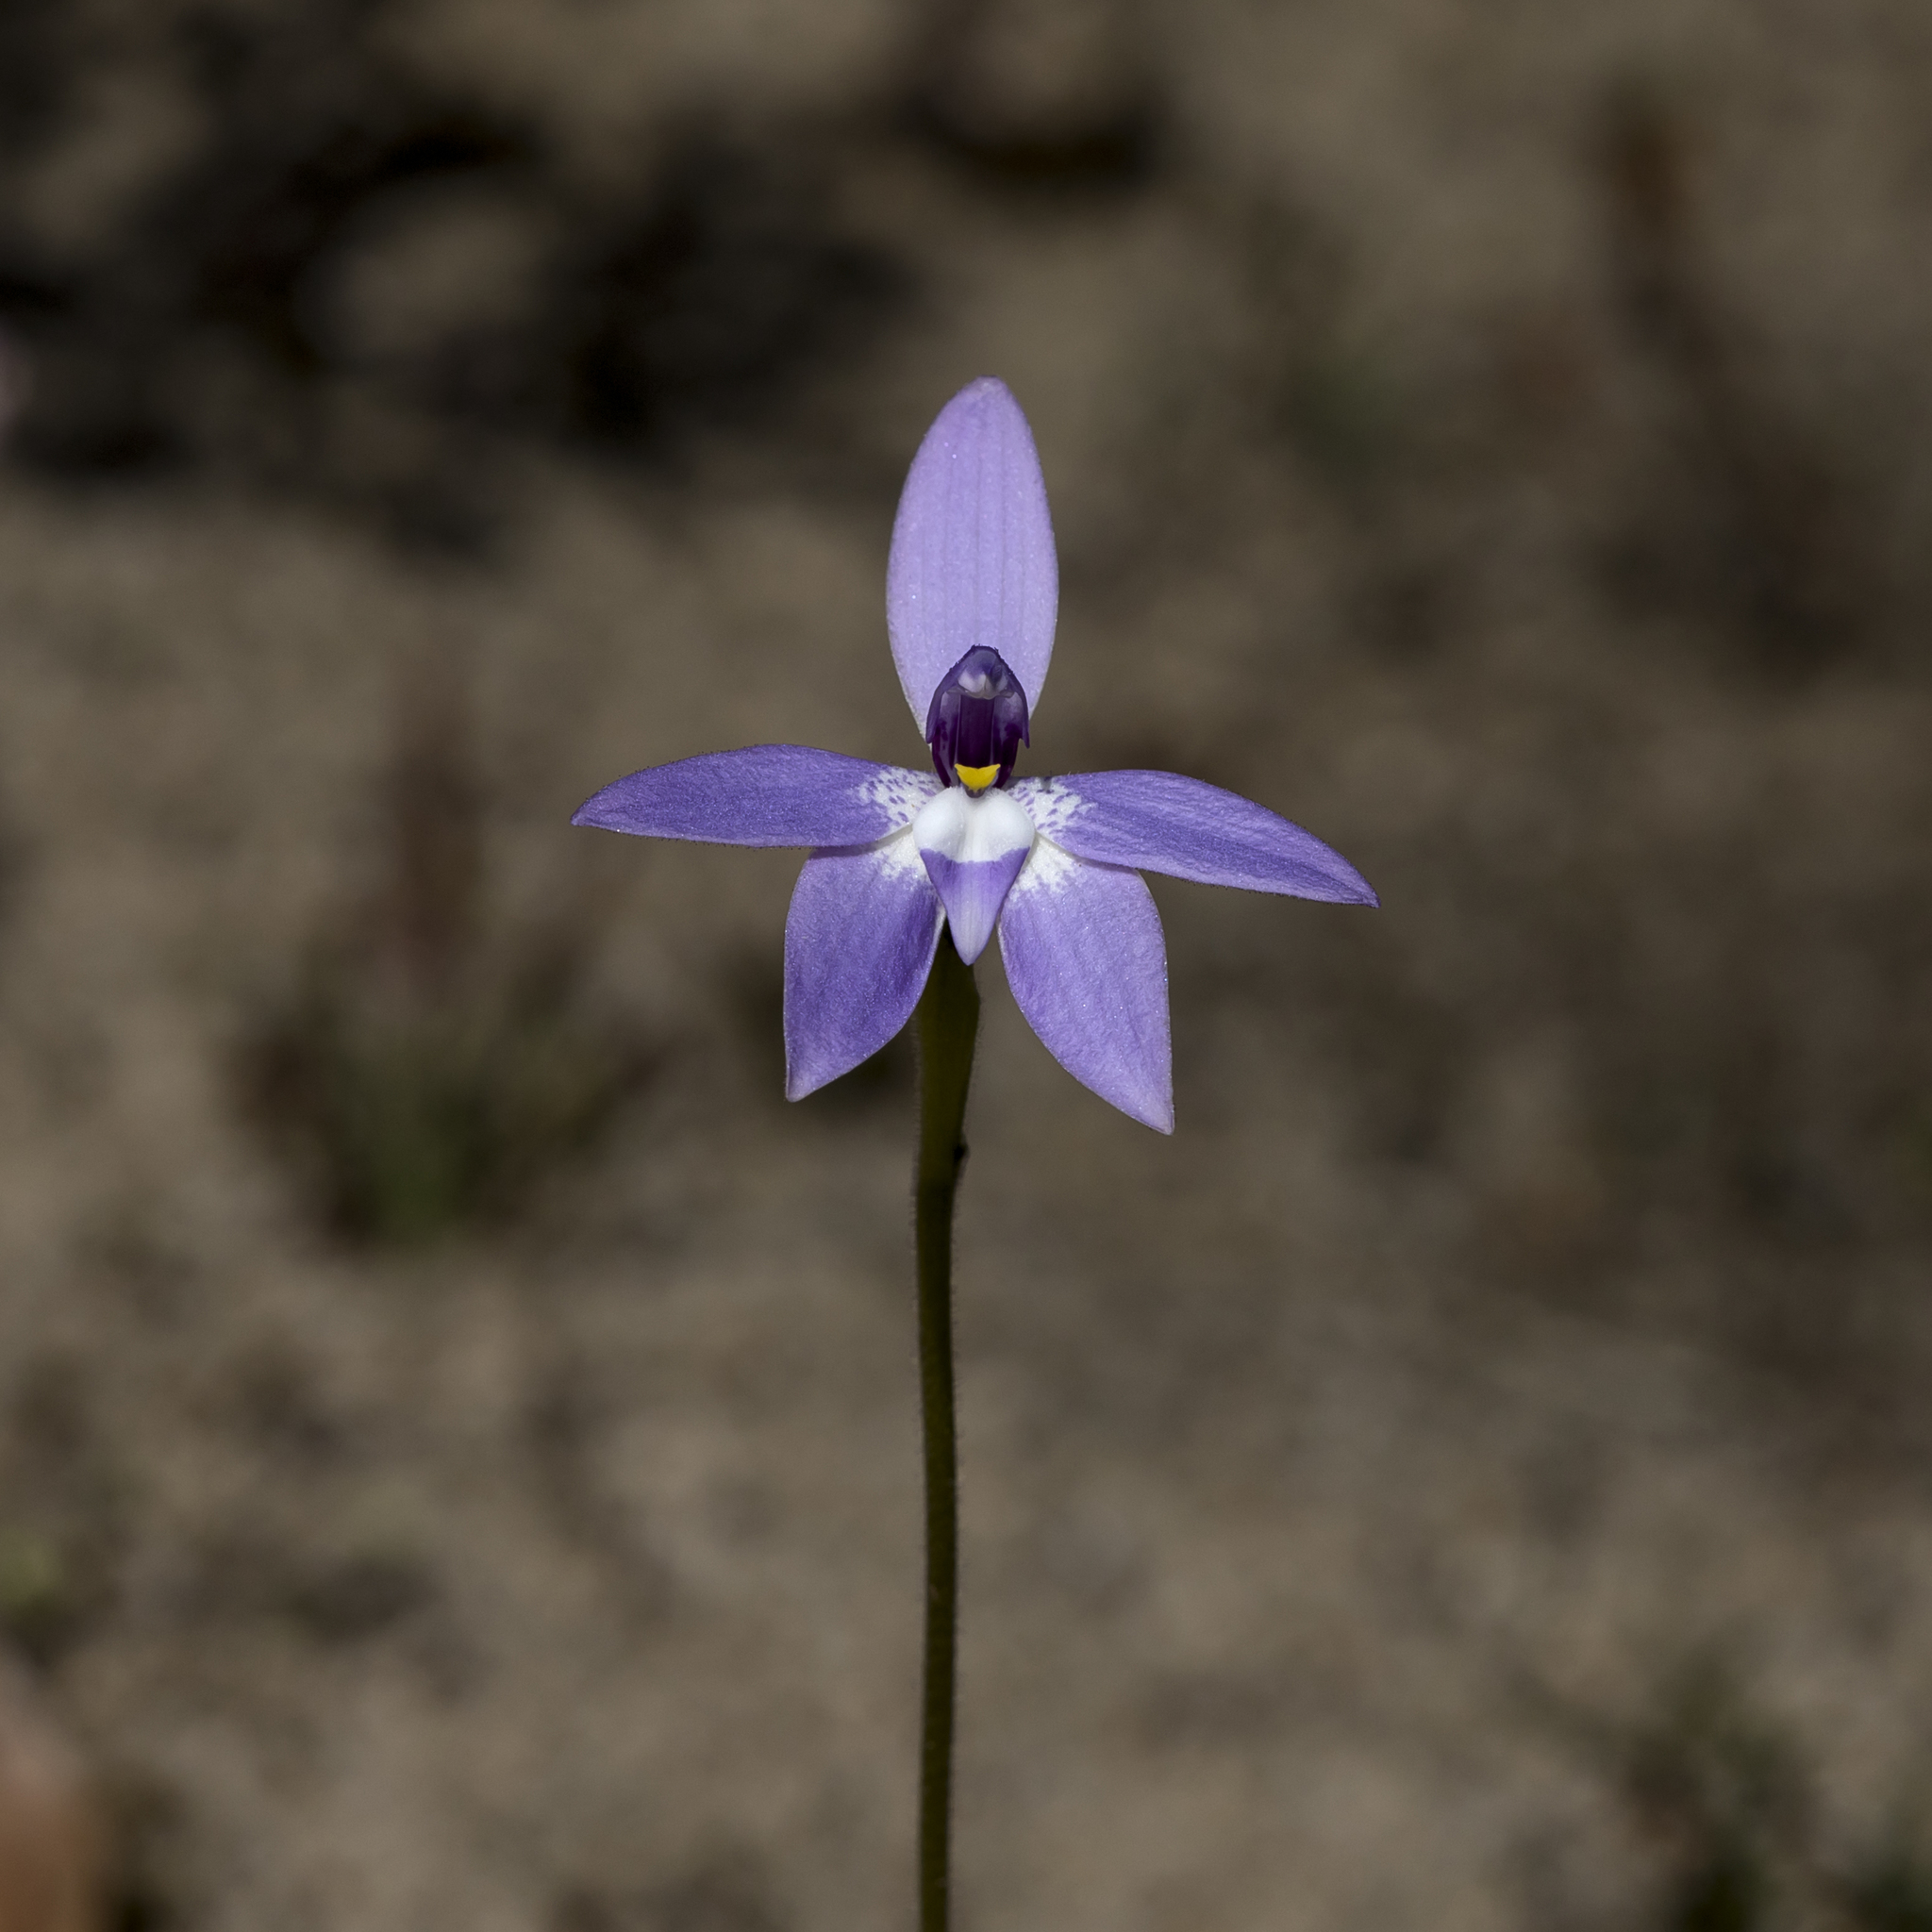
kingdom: Plantae
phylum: Tracheophyta
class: Liliopsida
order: Asparagales
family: Orchidaceae
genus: Caladenia
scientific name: Caladenia major
